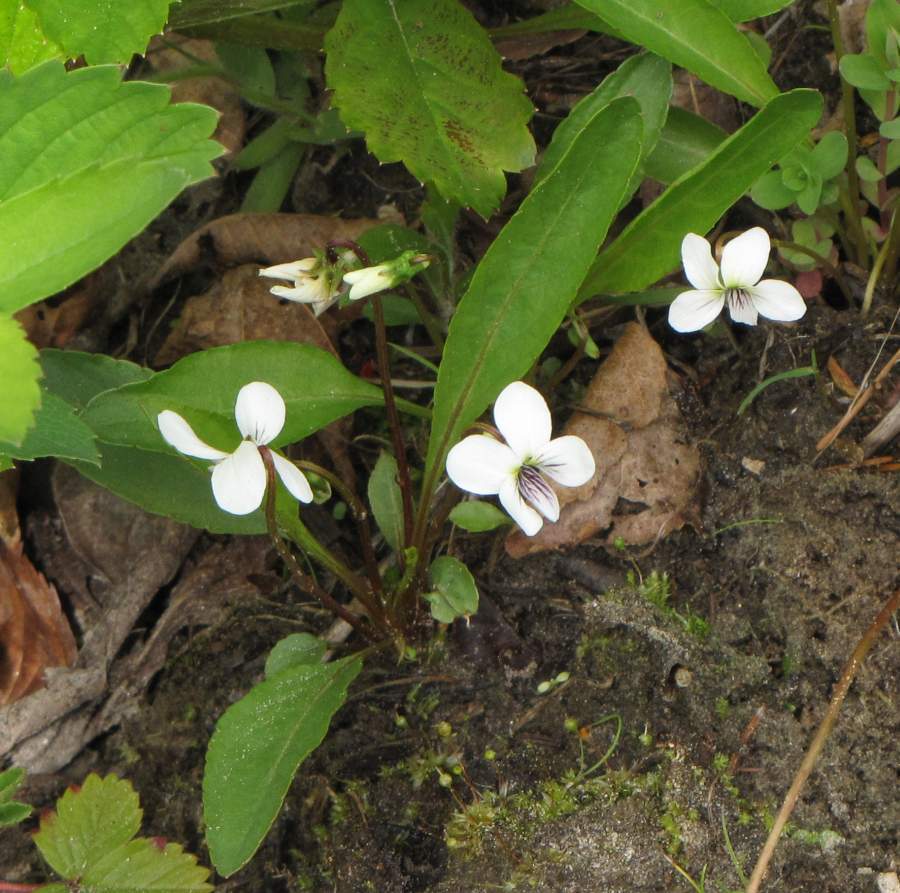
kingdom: Plantae
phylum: Tracheophyta
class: Magnoliopsida
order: Malpighiales
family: Violaceae
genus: Viola
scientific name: Viola lanceolata
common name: Bog white violet
